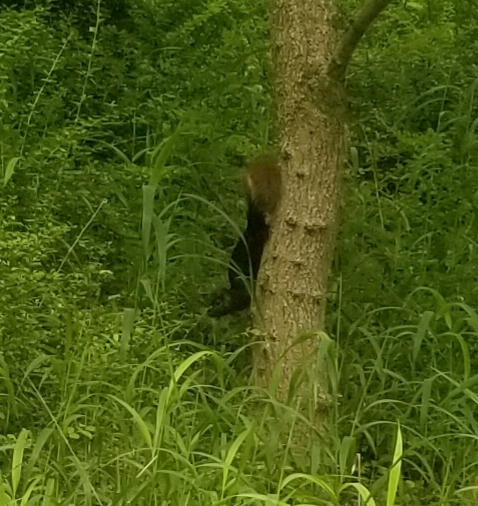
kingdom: Animalia
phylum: Chordata
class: Mammalia
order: Rodentia
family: Sciuridae
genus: Sciurus
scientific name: Sciurus carolinensis
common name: Eastern gray squirrel
